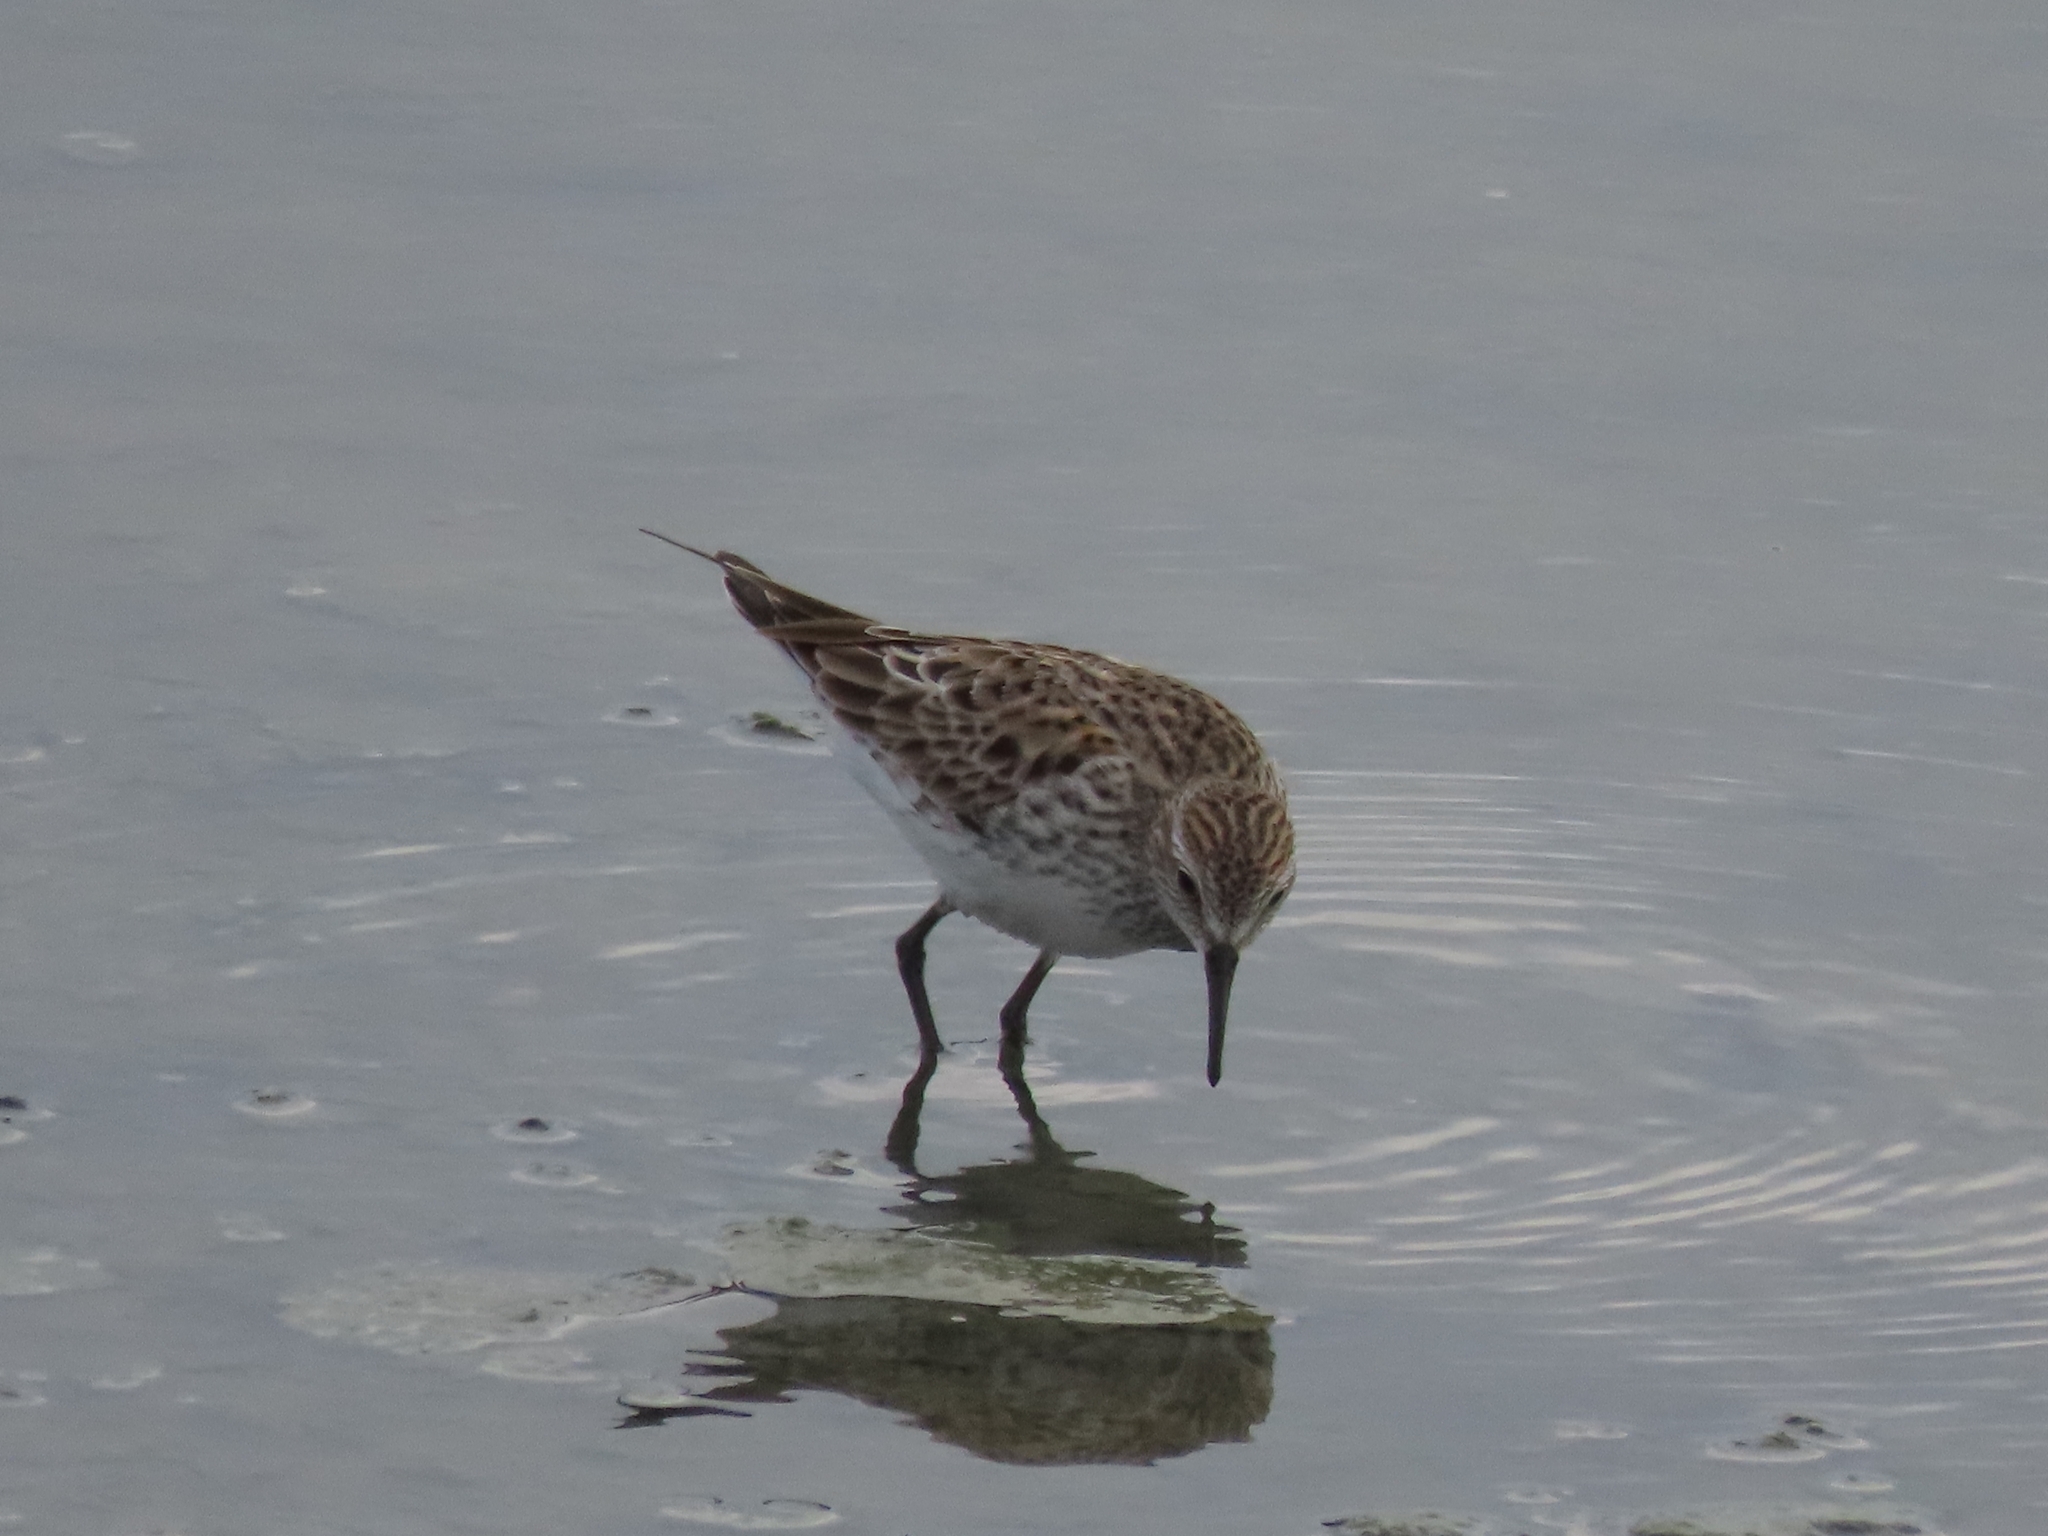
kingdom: Animalia
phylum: Chordata
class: Aves
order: Charadriiformes
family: Scolopacidae
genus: Calidris
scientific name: Calidris fuscicollis
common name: White-rumped sandpiper
